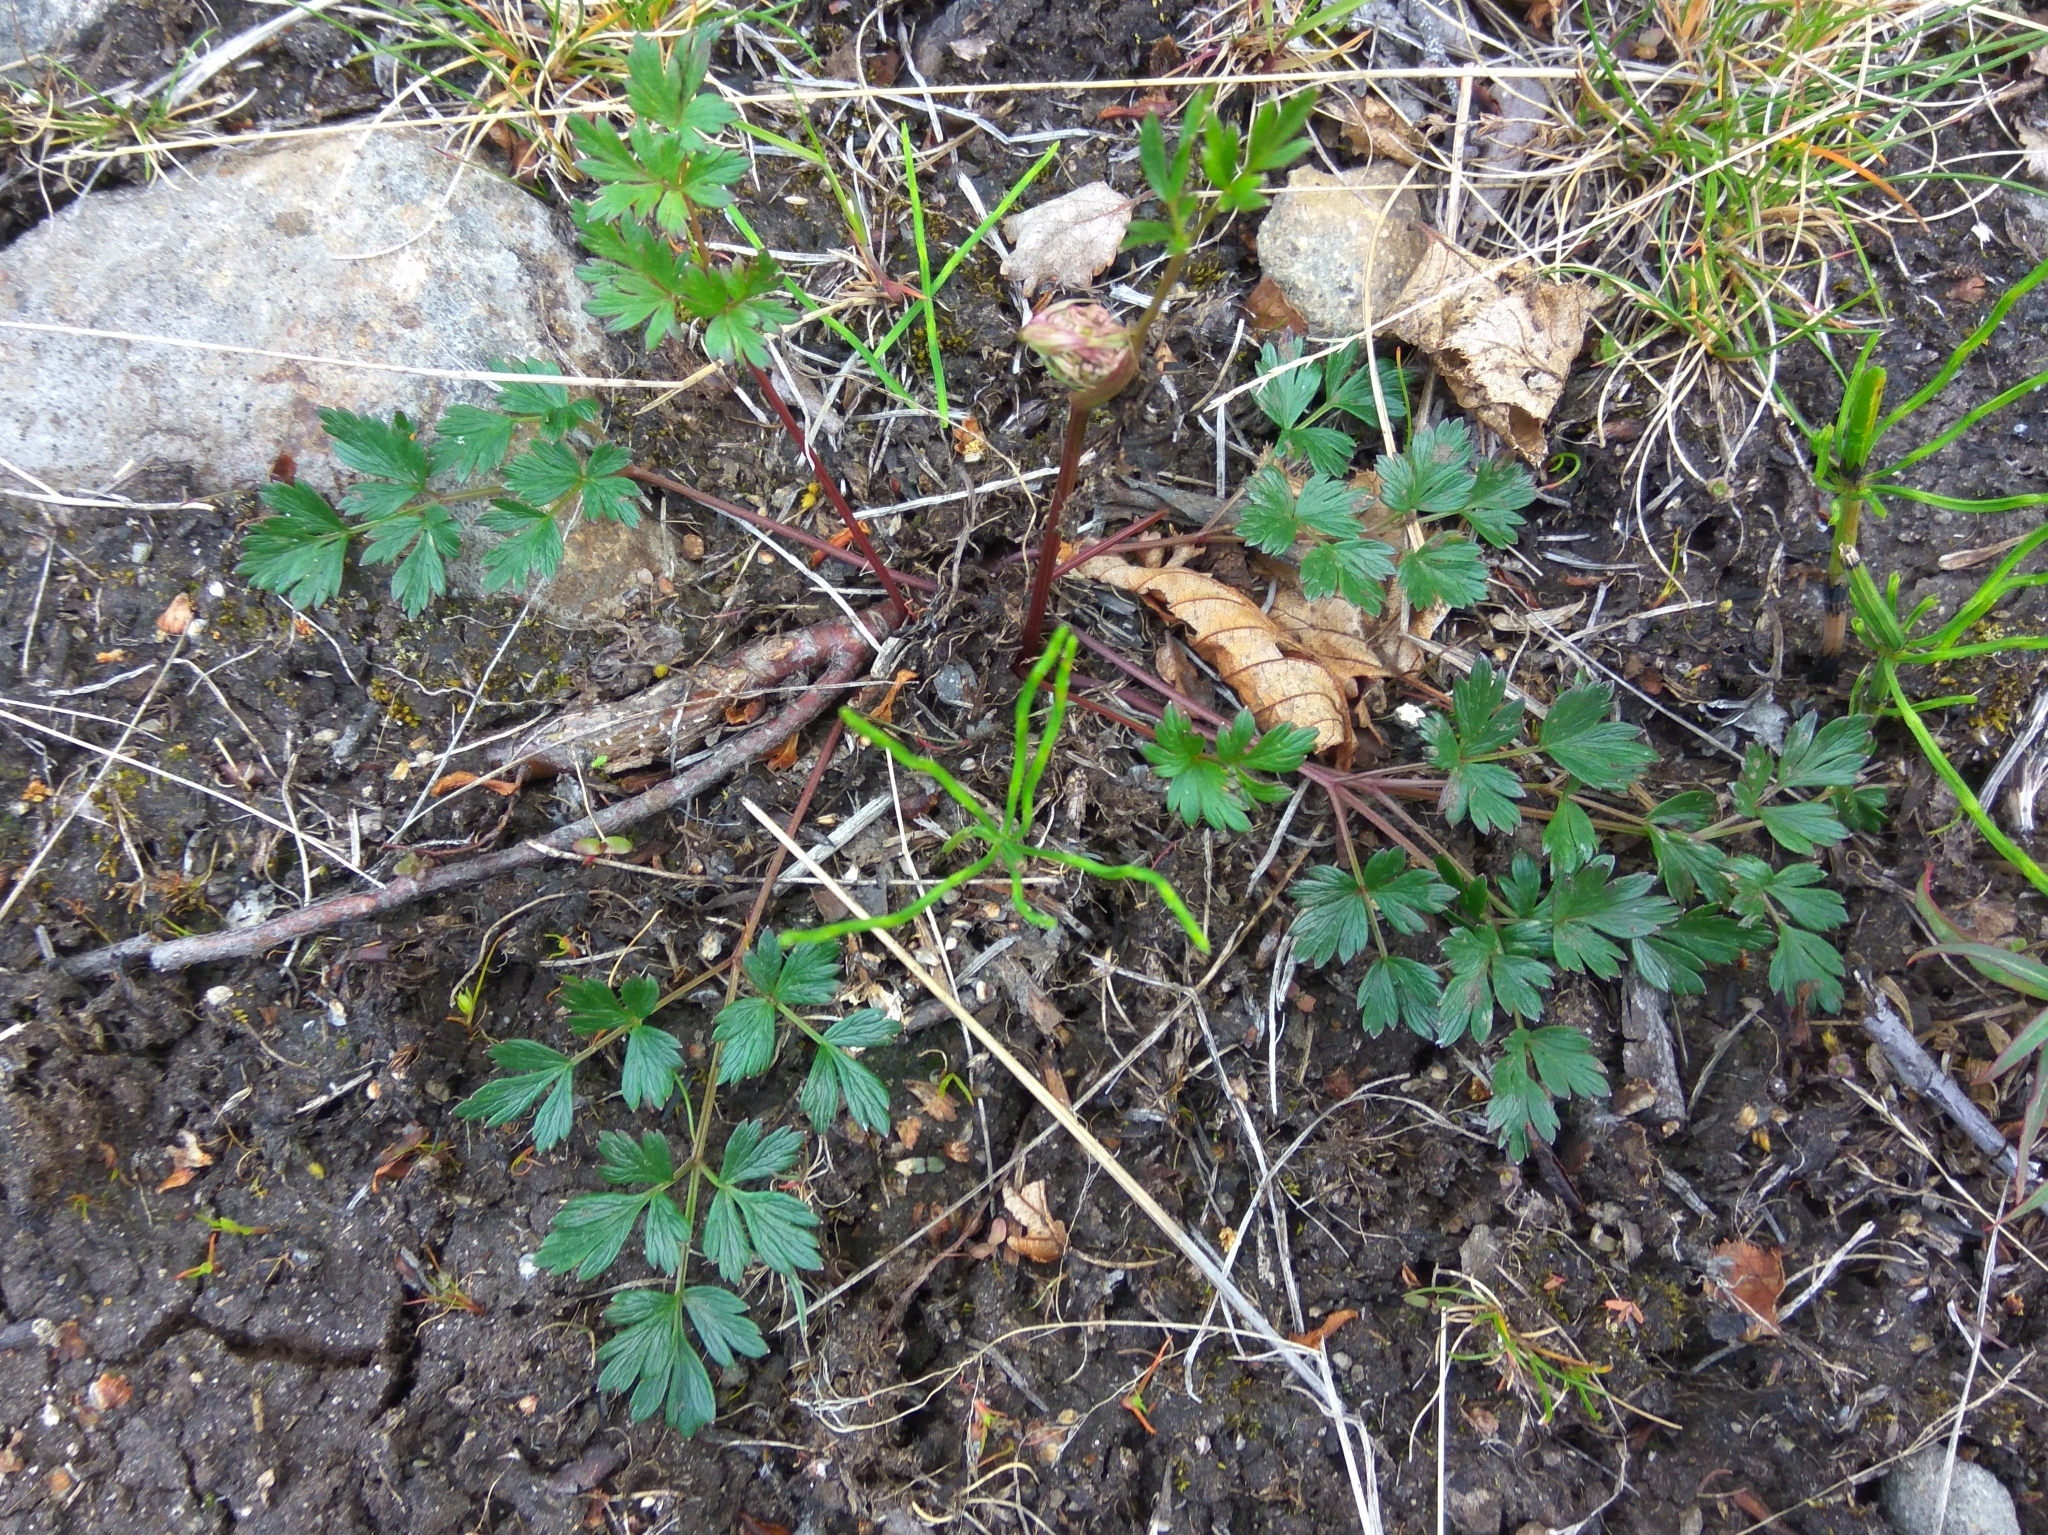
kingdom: Plantae
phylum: Tracheophyta
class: Magnoliopsida
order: Apiales
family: Apiaceae
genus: Tilingia
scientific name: Tilingia ajanensis
